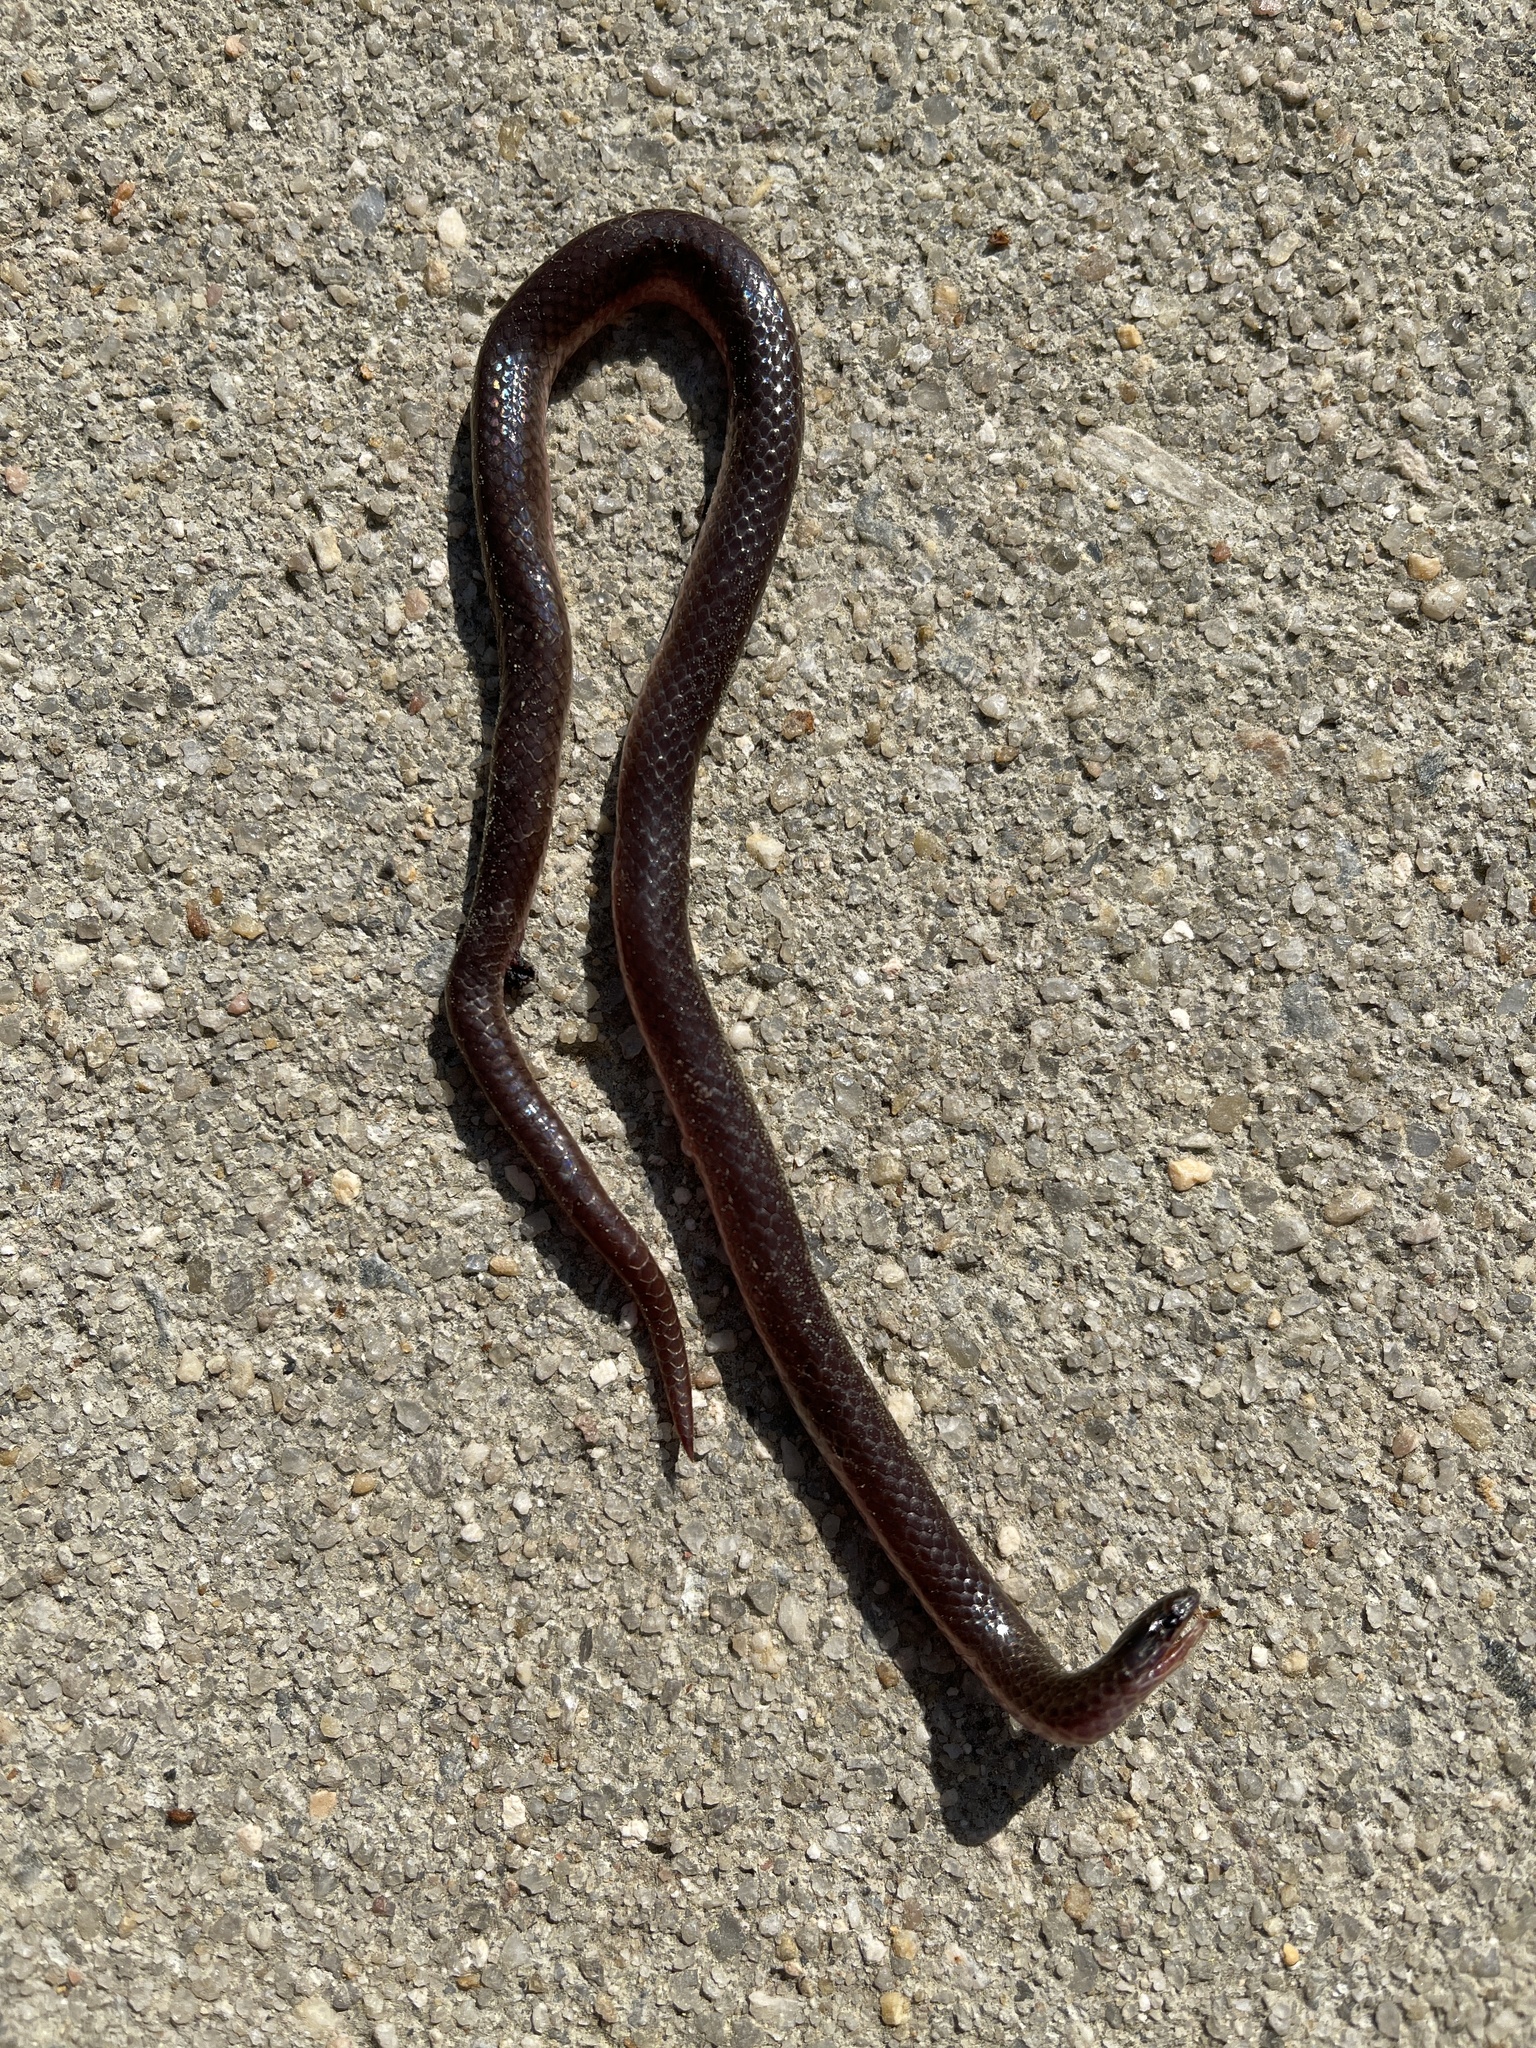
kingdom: Animalia
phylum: Chordata
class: Squamata
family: Colubridae
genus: Carphophis
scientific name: Carphophis amoenus
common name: Eastern worm snake
